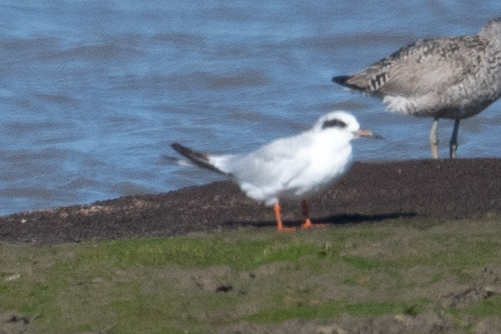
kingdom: Animalia
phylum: Chordata
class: Aves
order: Charadriiformes
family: Laridae
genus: Sterna
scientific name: Sterna forsteri
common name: Forster's tern
